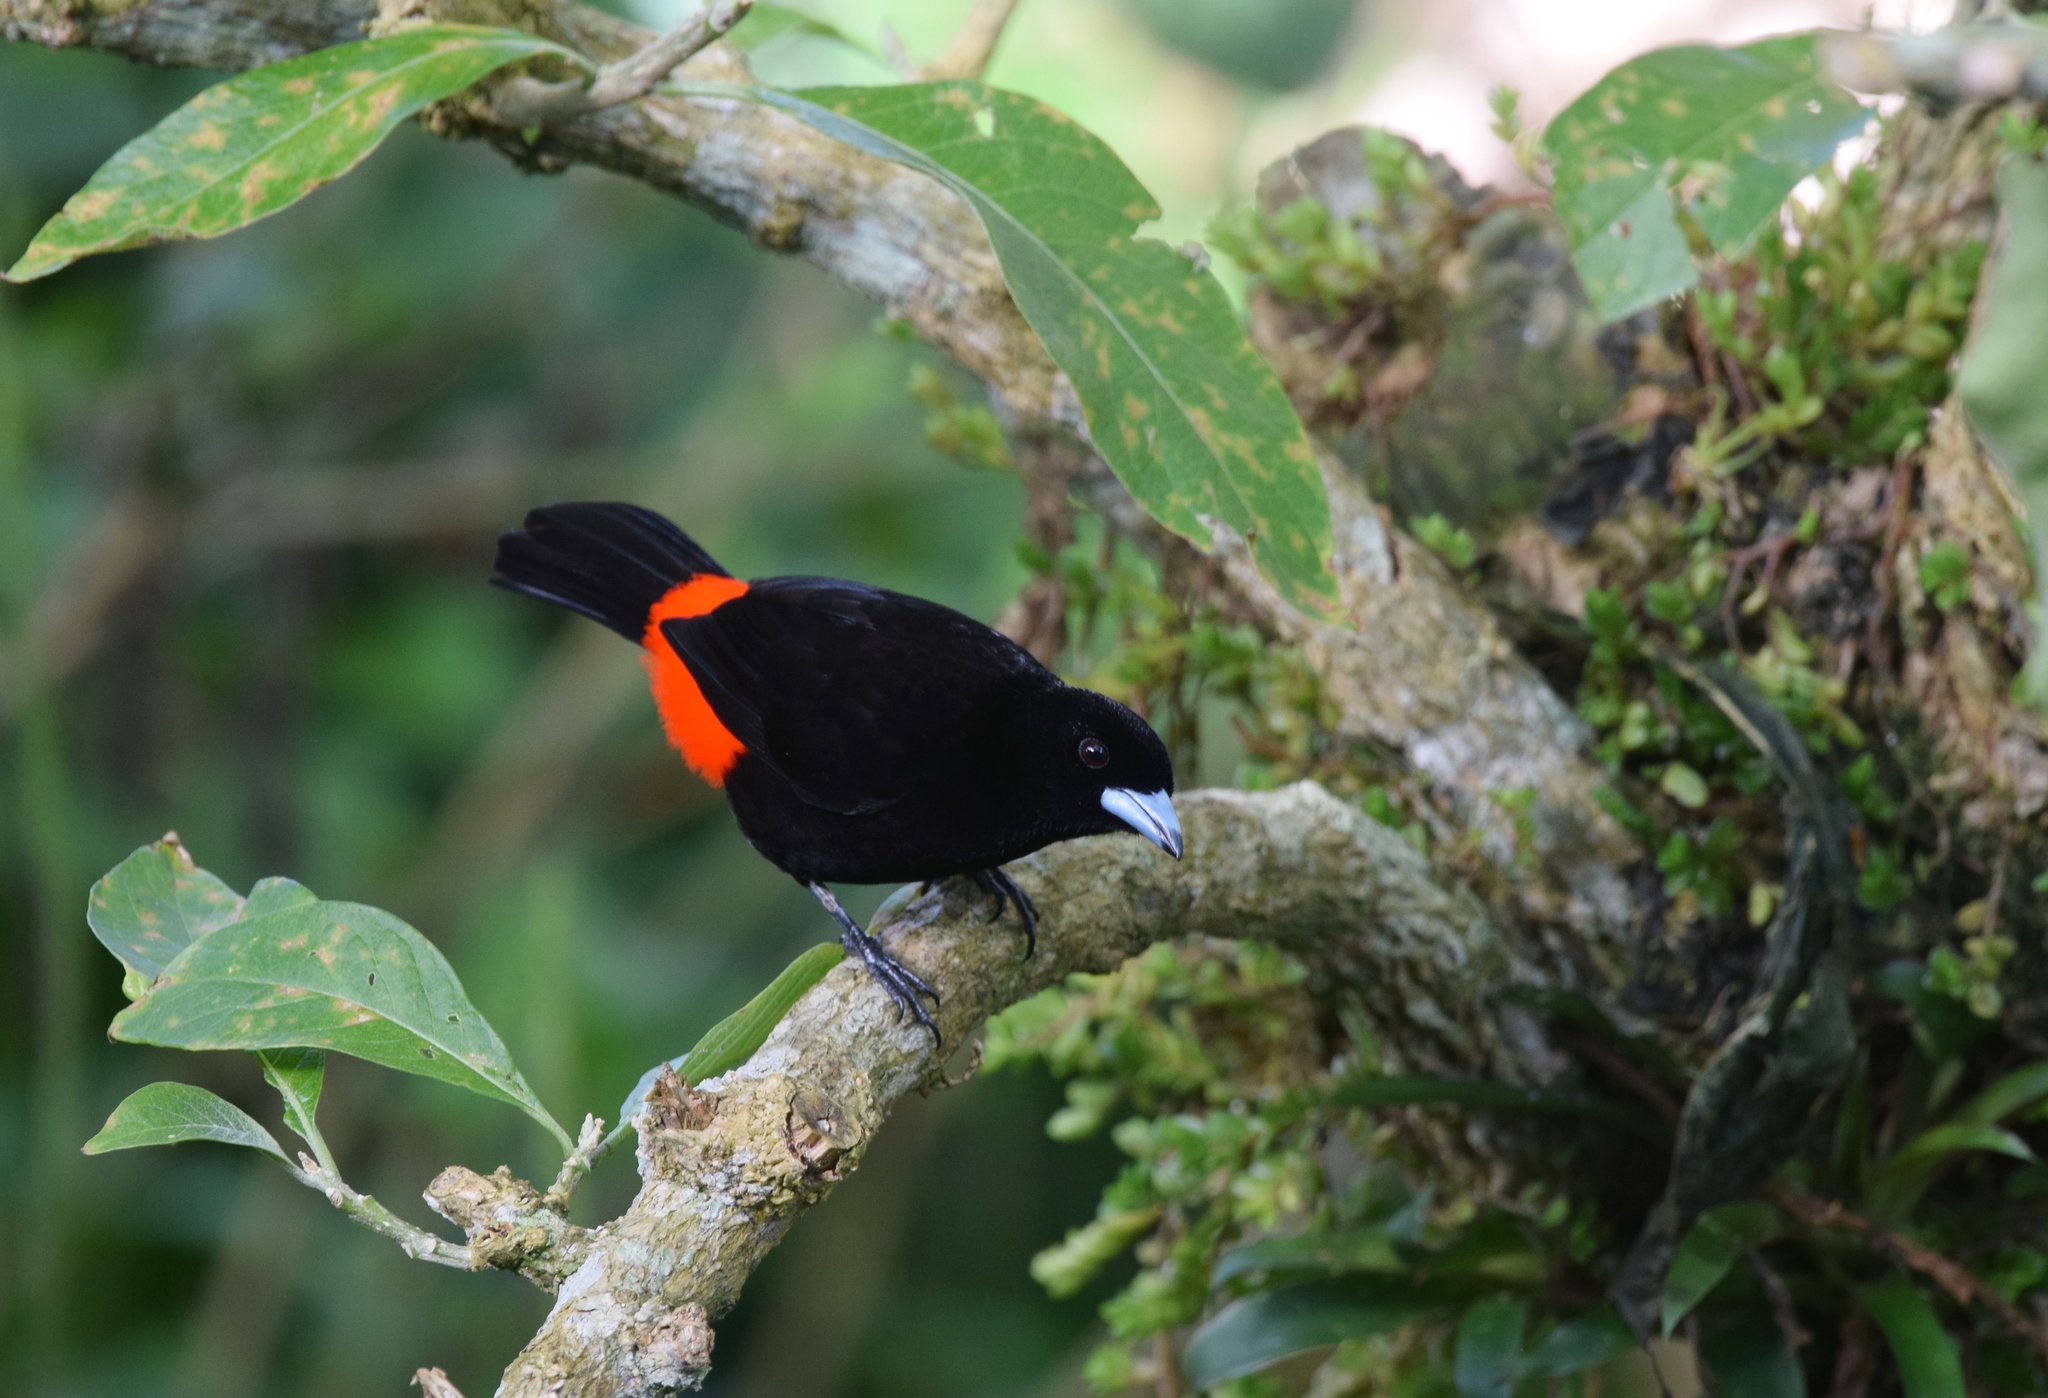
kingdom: Animalia
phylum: Chordata
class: Aves
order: Passeriformes
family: Thraupidae
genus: Ramphocelus
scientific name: Ramphocelus passerinii
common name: Passerini's tanager
